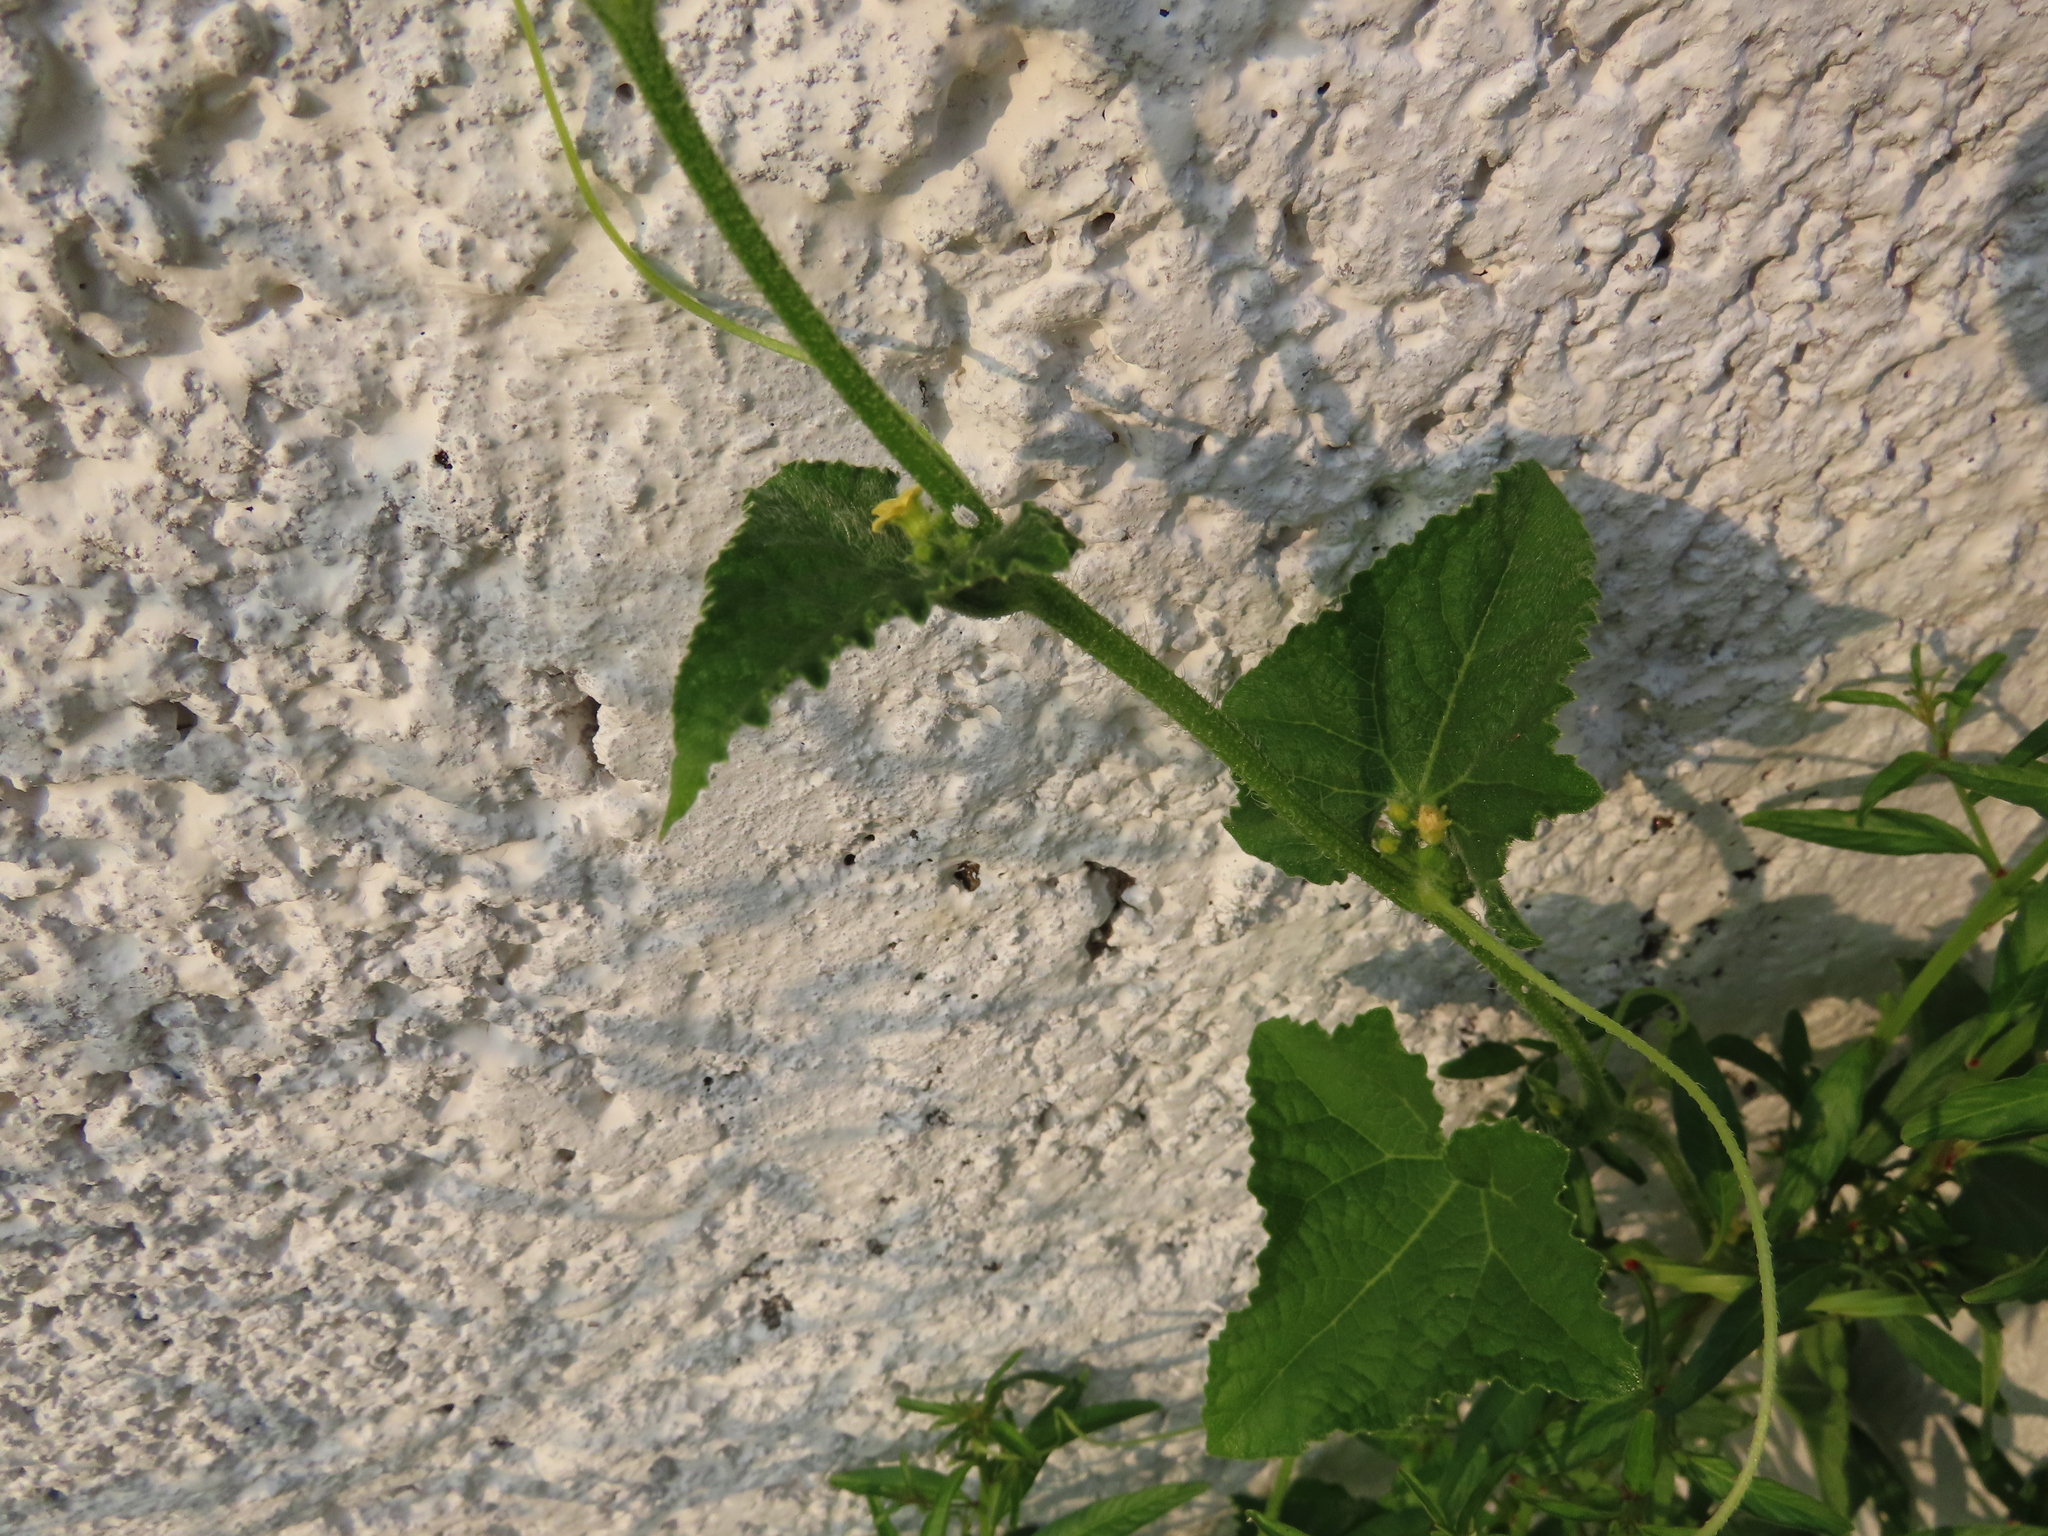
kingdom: Plantae
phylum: Tracheophyta
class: Magnoliopsida
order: Cucurbitales
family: Cucurbitaceae
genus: Cucumis
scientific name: Cucumis maderaspatanus
